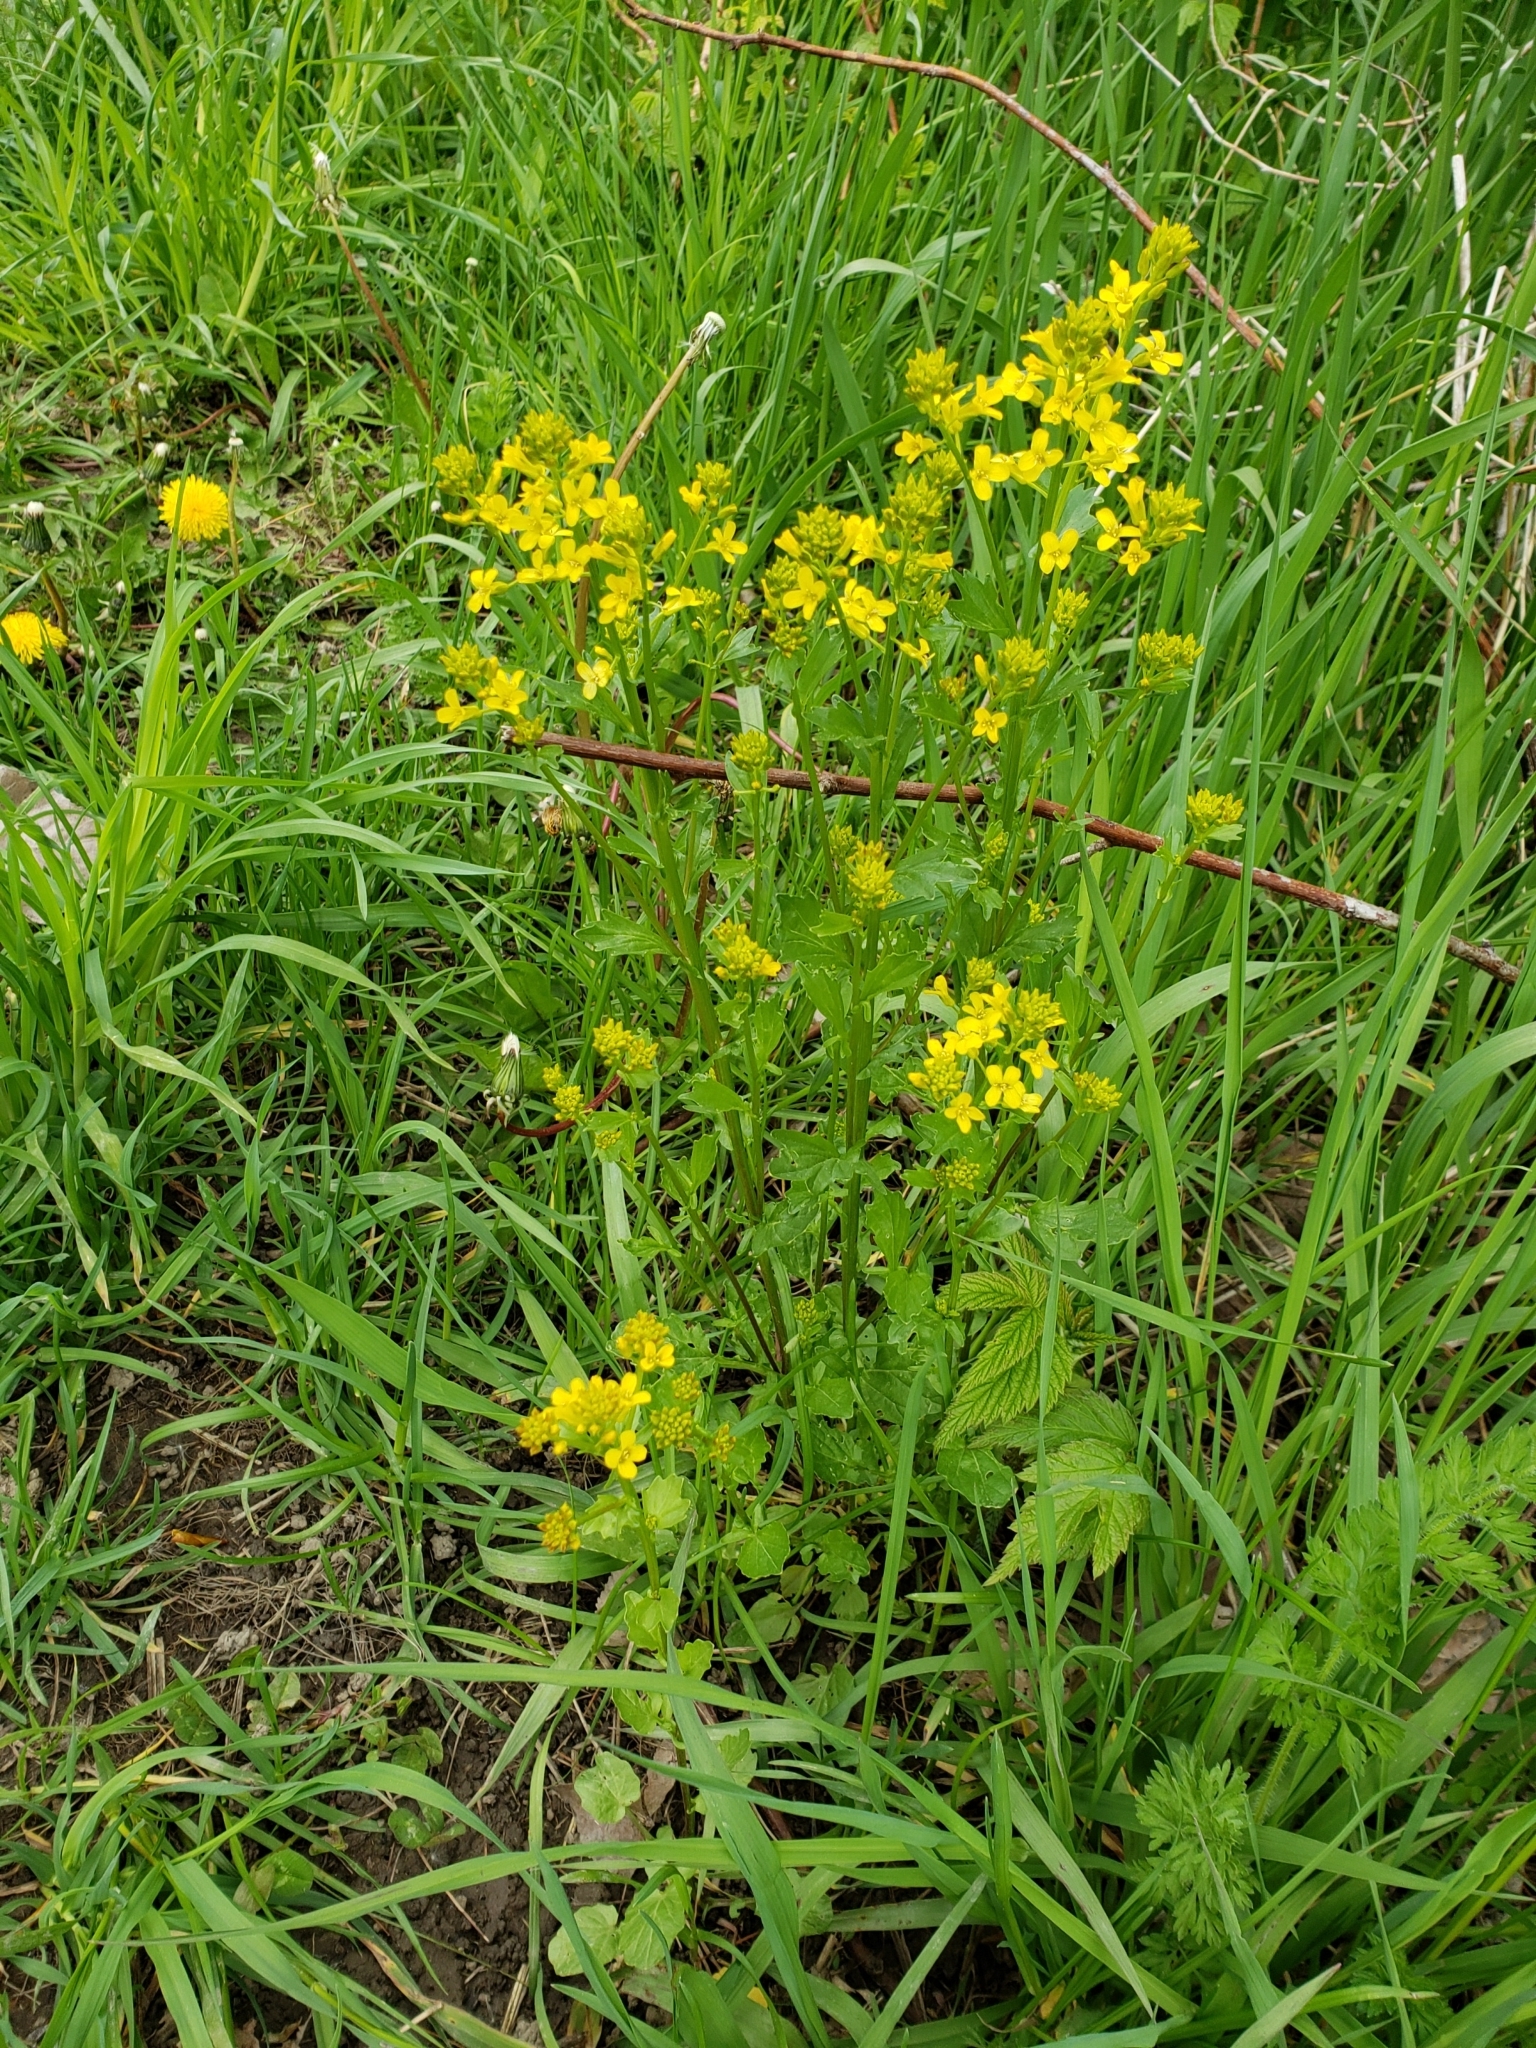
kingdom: Plantae
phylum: Tracheophyta
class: Magnoliopsida
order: Brassicales
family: Brassicaceae
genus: Barbarea
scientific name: Barbarea vulgaris
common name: Cressy-greens
